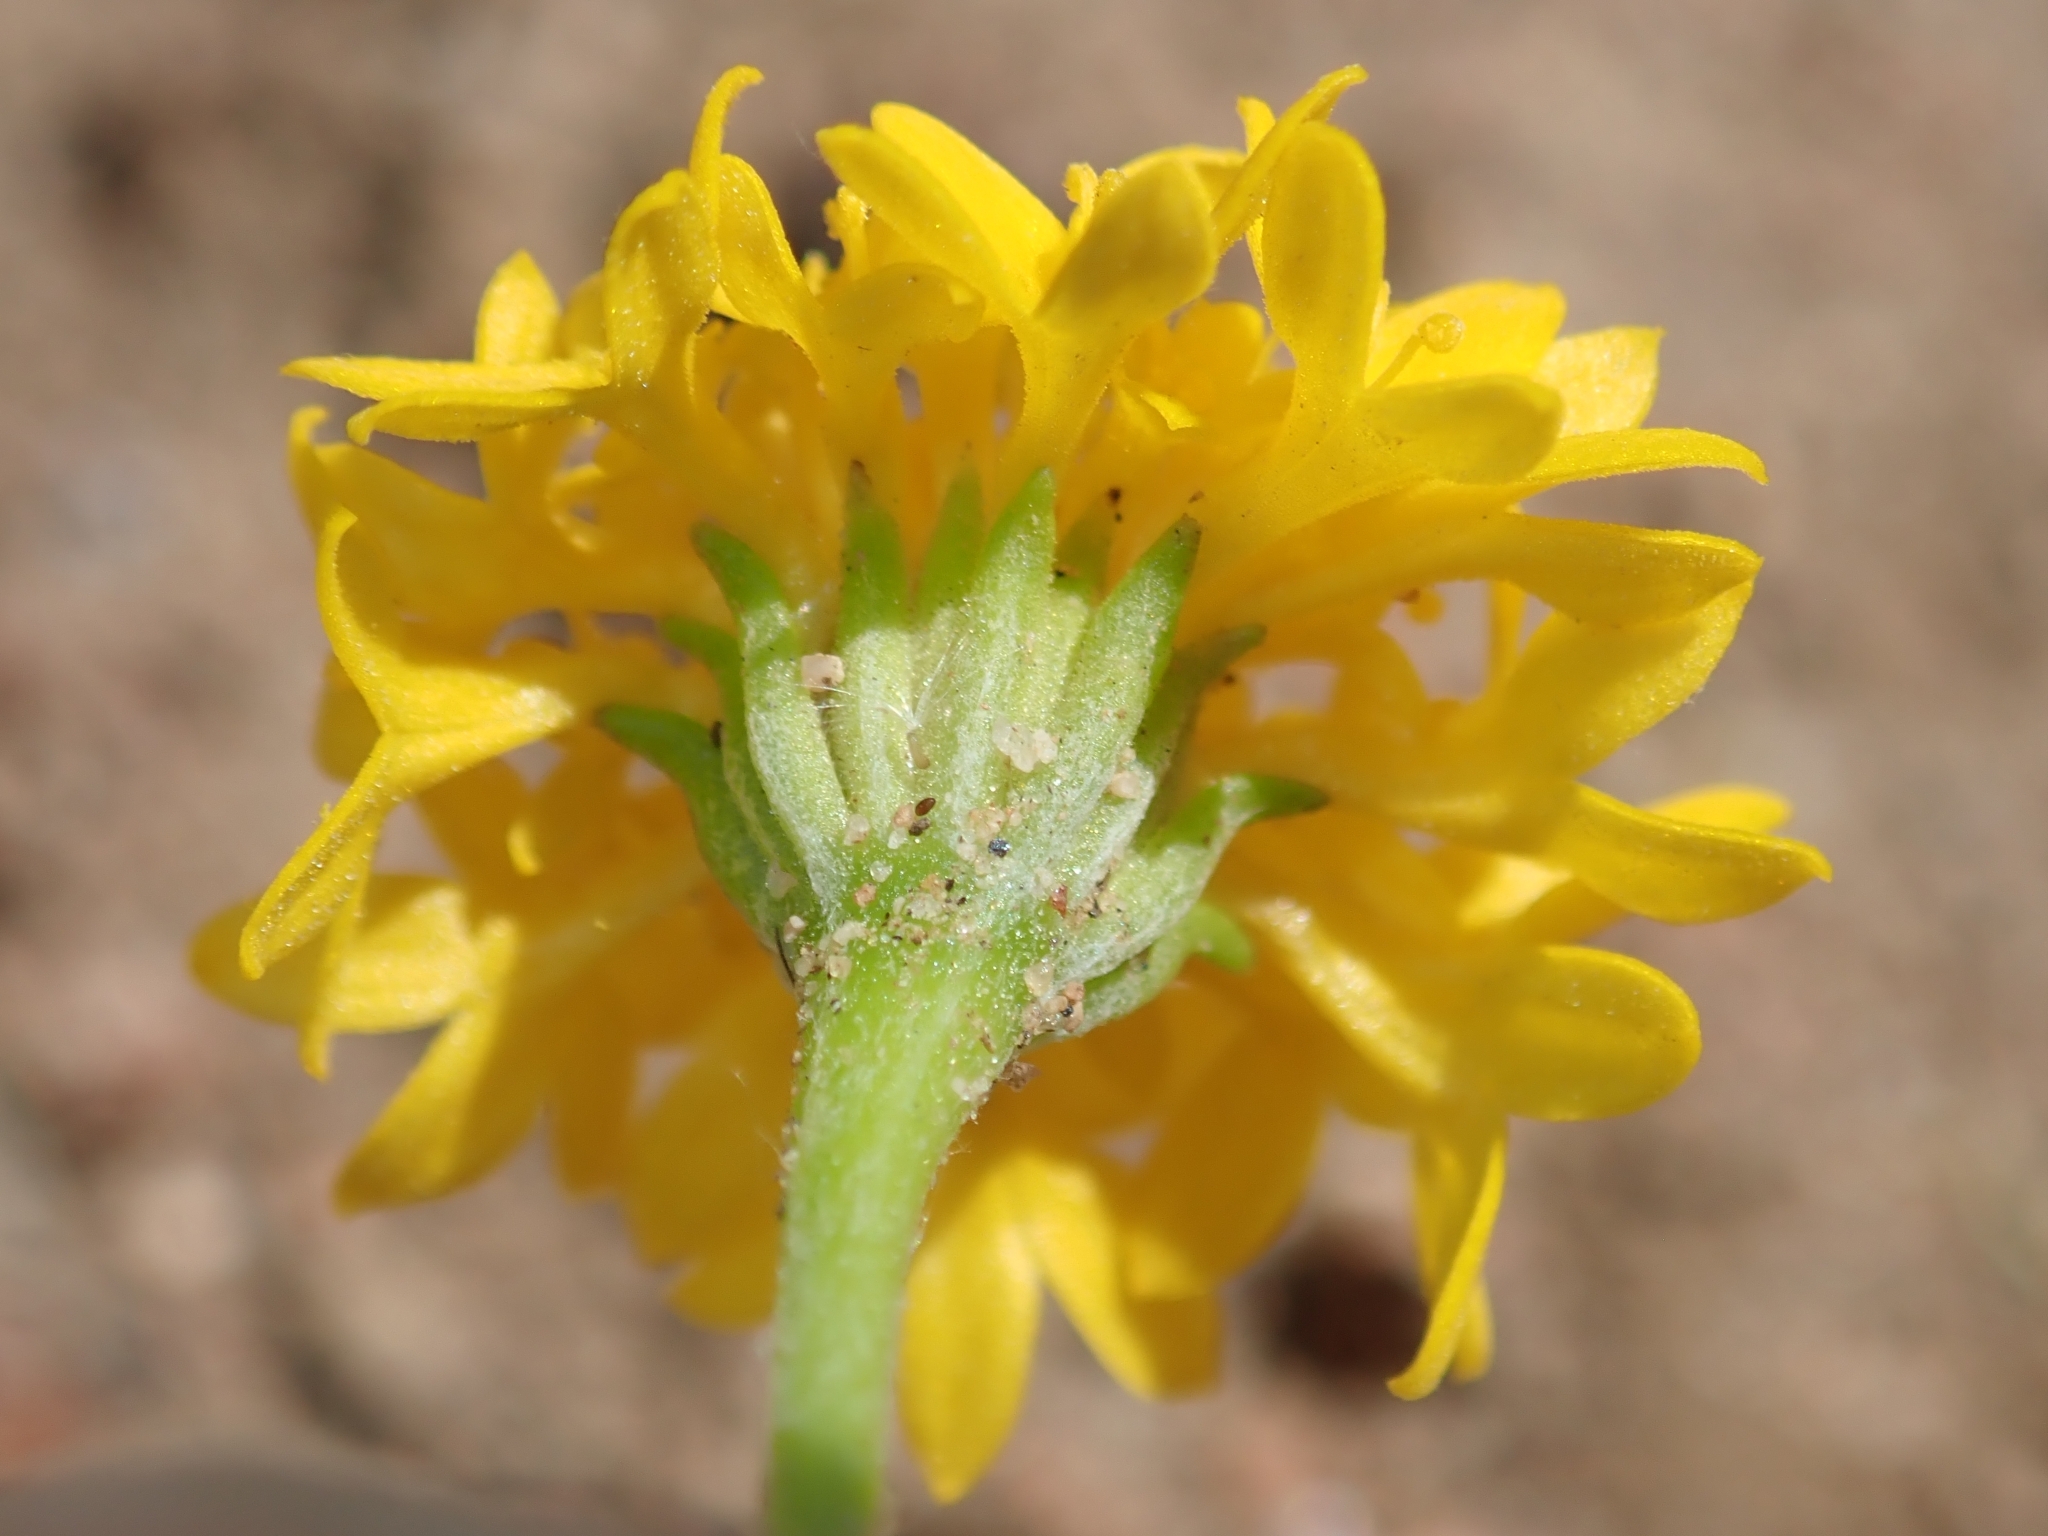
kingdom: Plantae
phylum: Tracheophyta
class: Magnoliopsida
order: Asterales
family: Asteraceae
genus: Chaenactis
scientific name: Chaenactis glabriuscula
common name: Yellow pincushion
